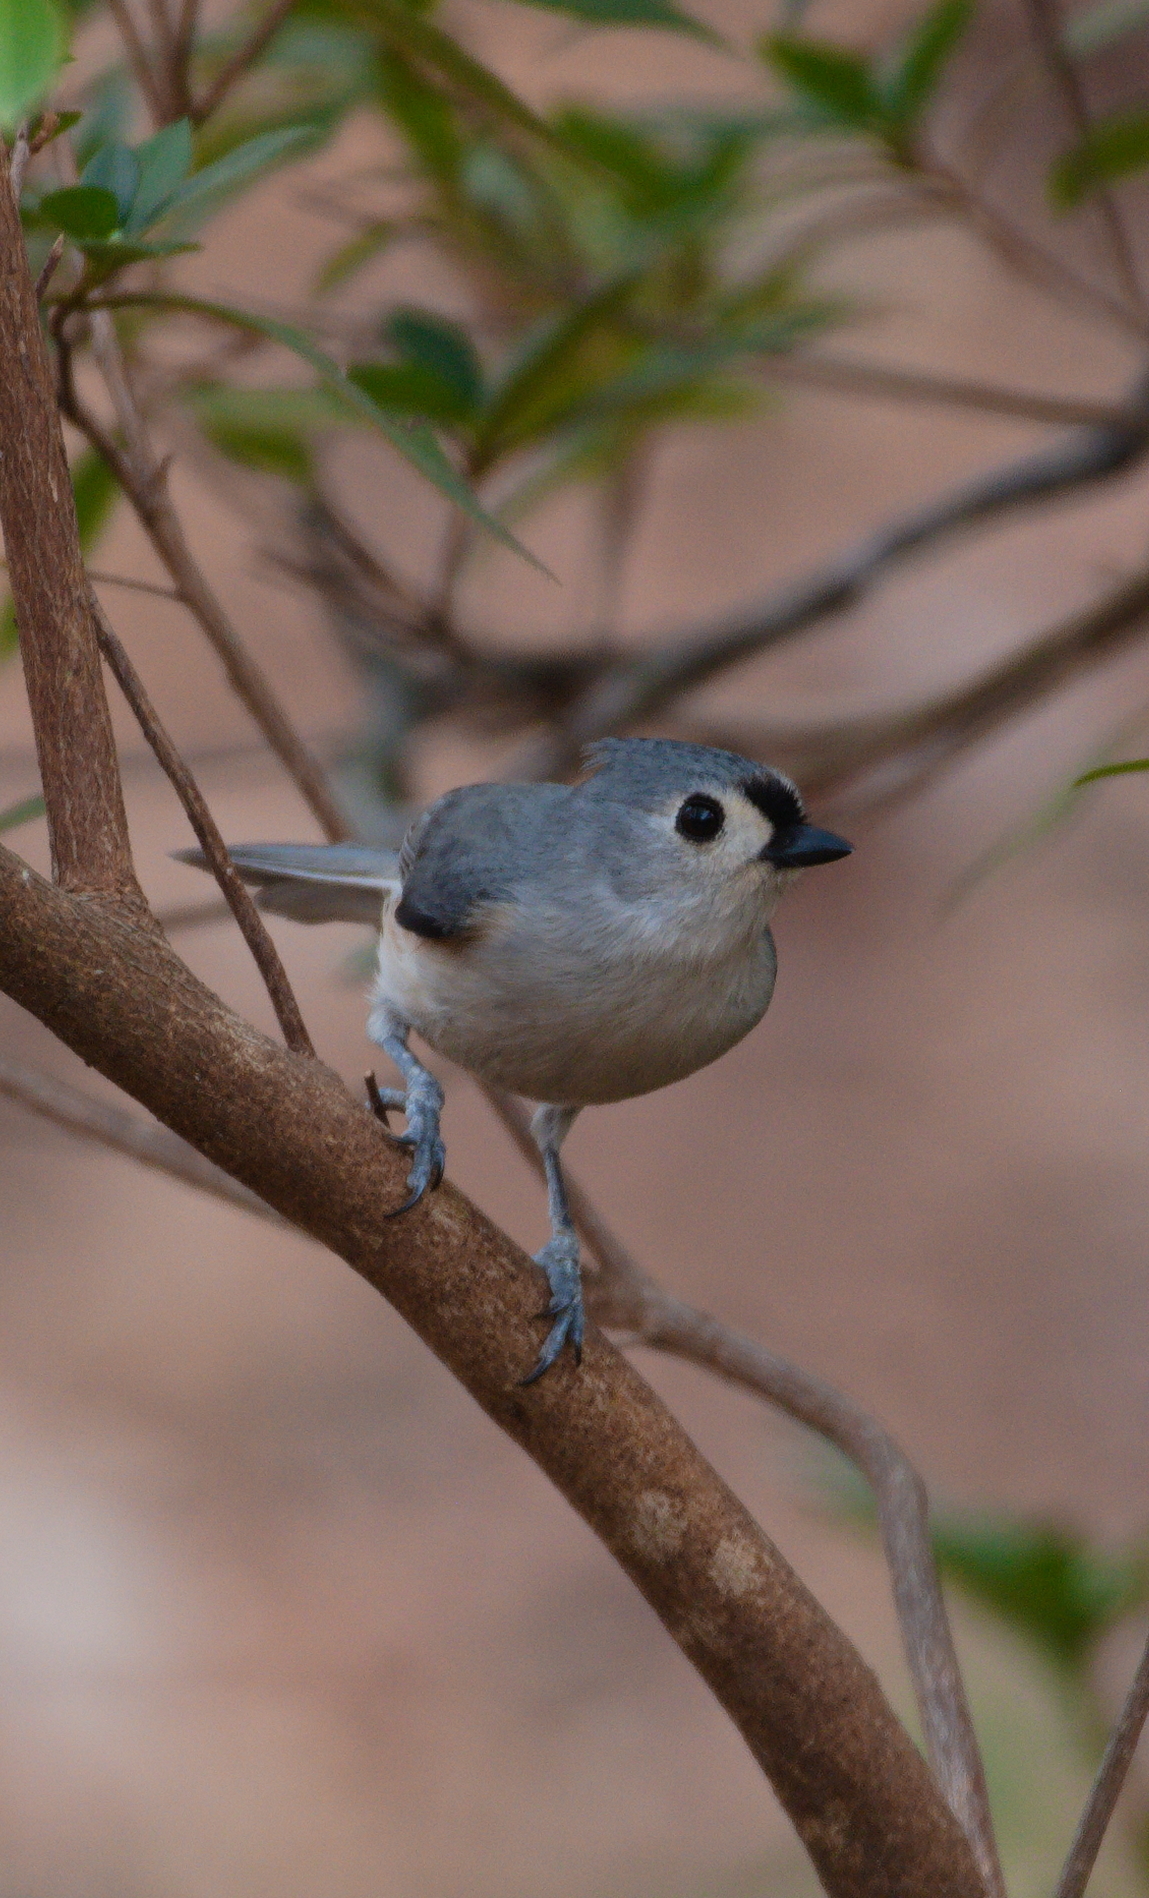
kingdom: Animalia
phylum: Chordata
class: Aves
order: Passeriformes
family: Paridae
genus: Baeolophus
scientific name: Baeolophus bicolor
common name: Tufted titmouse
